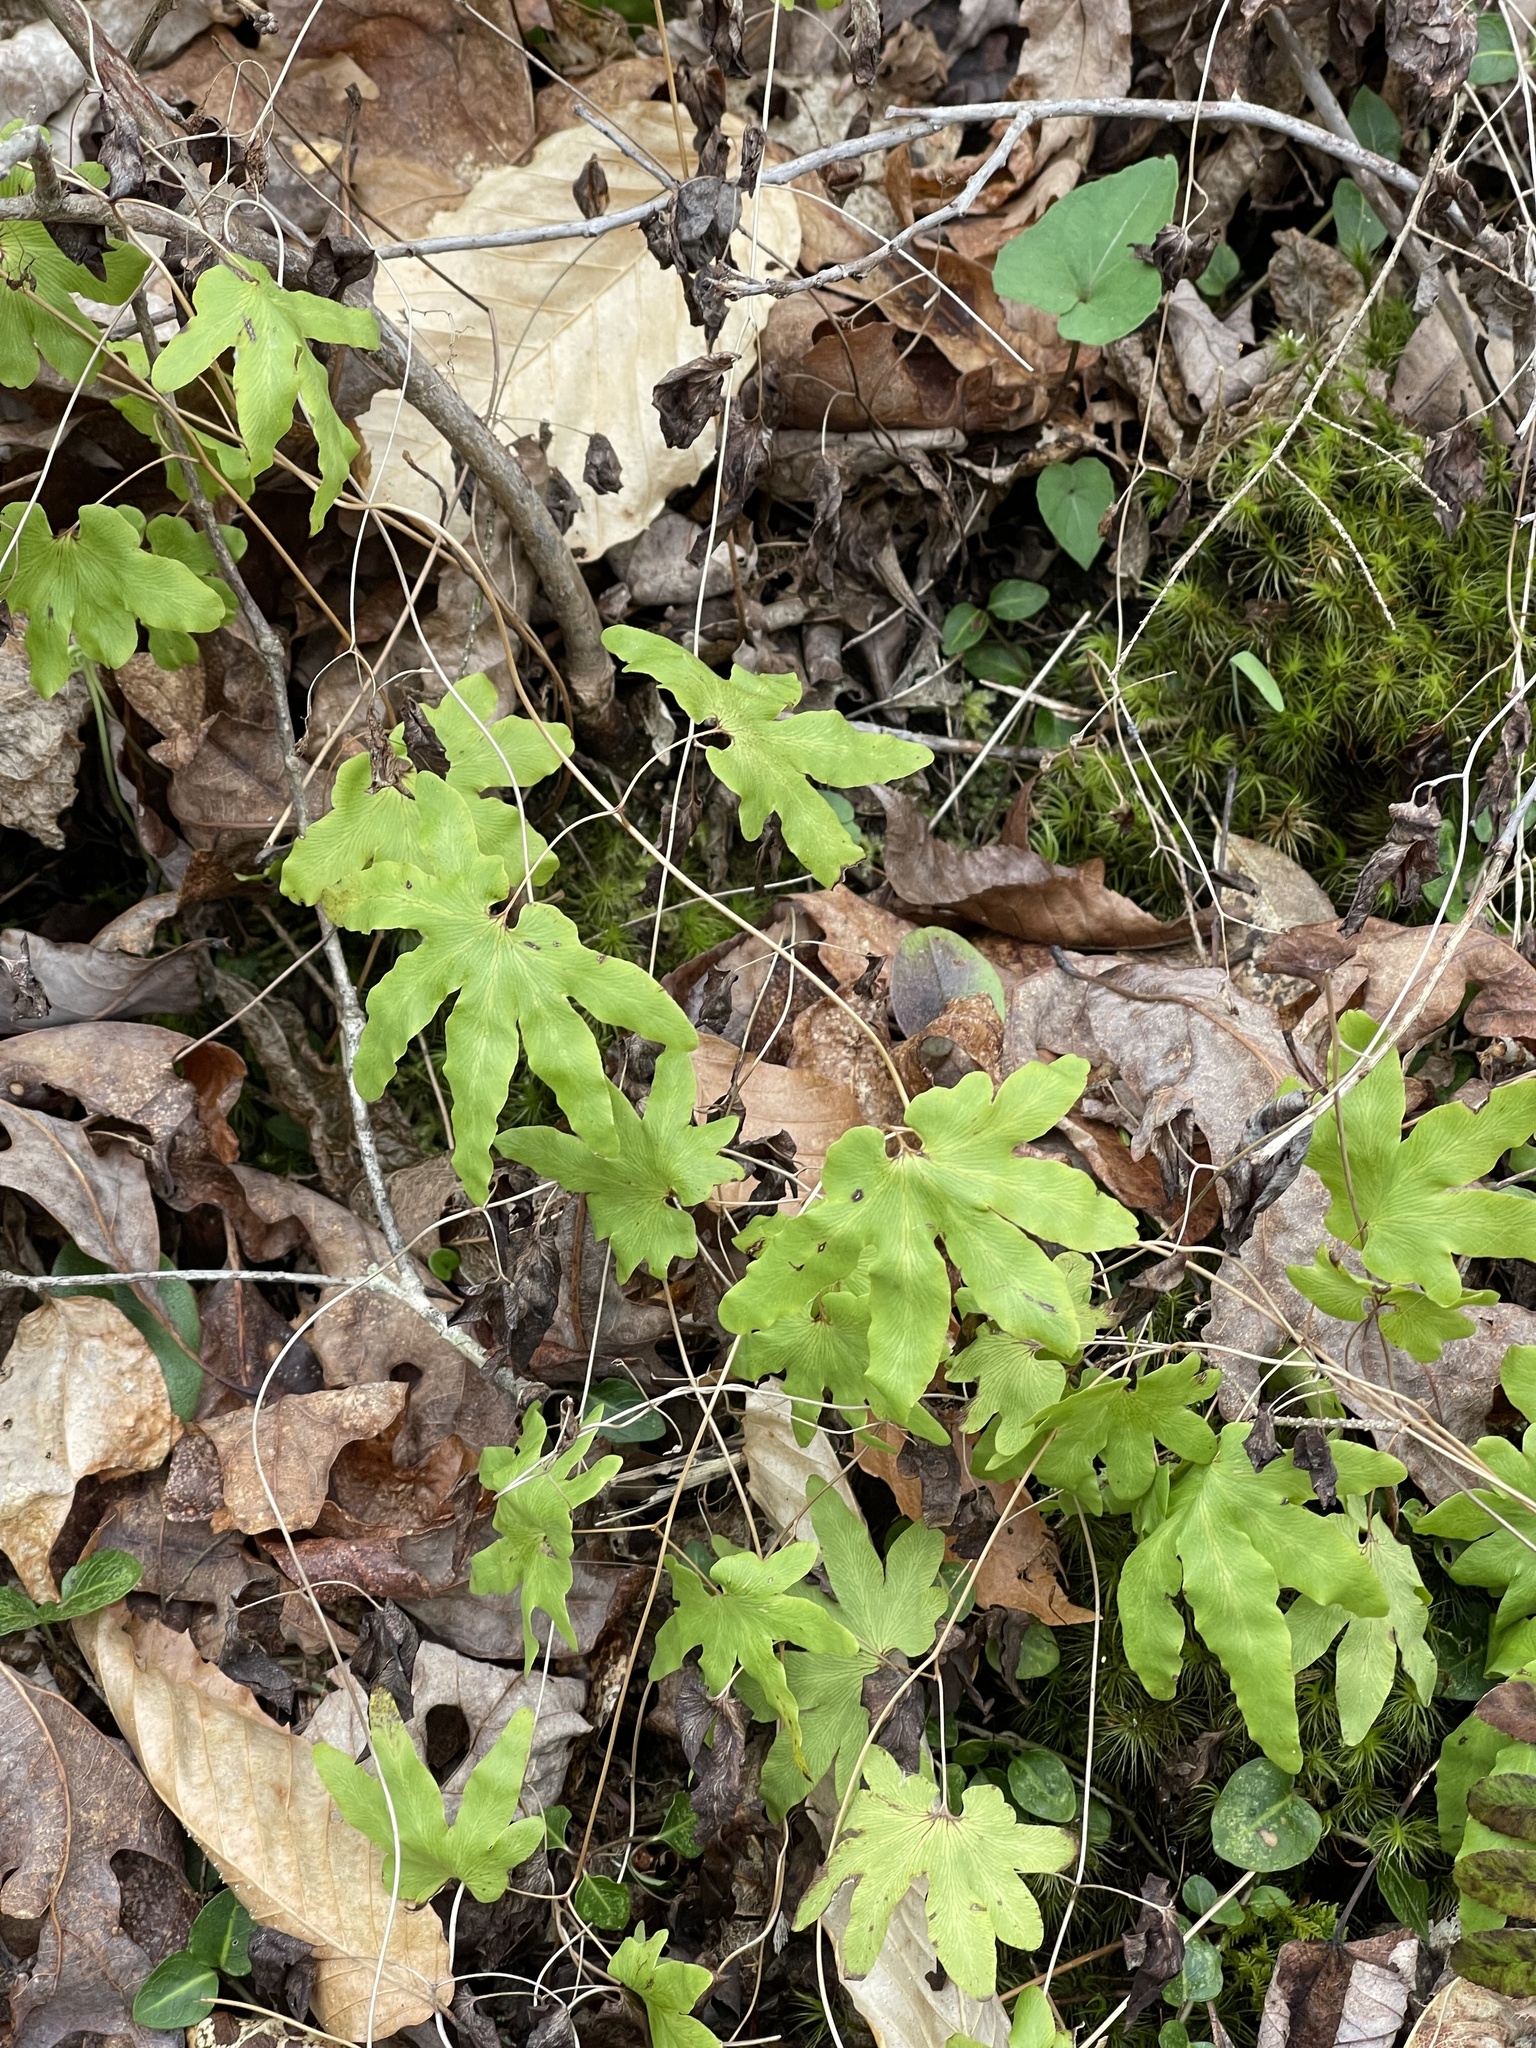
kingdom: Plantae
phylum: Tracheophyta
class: Polypodiopsida
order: Schizaeales
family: Lygodiaceae
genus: Lygodium
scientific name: Lygodium palmatum
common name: American climbing fern
